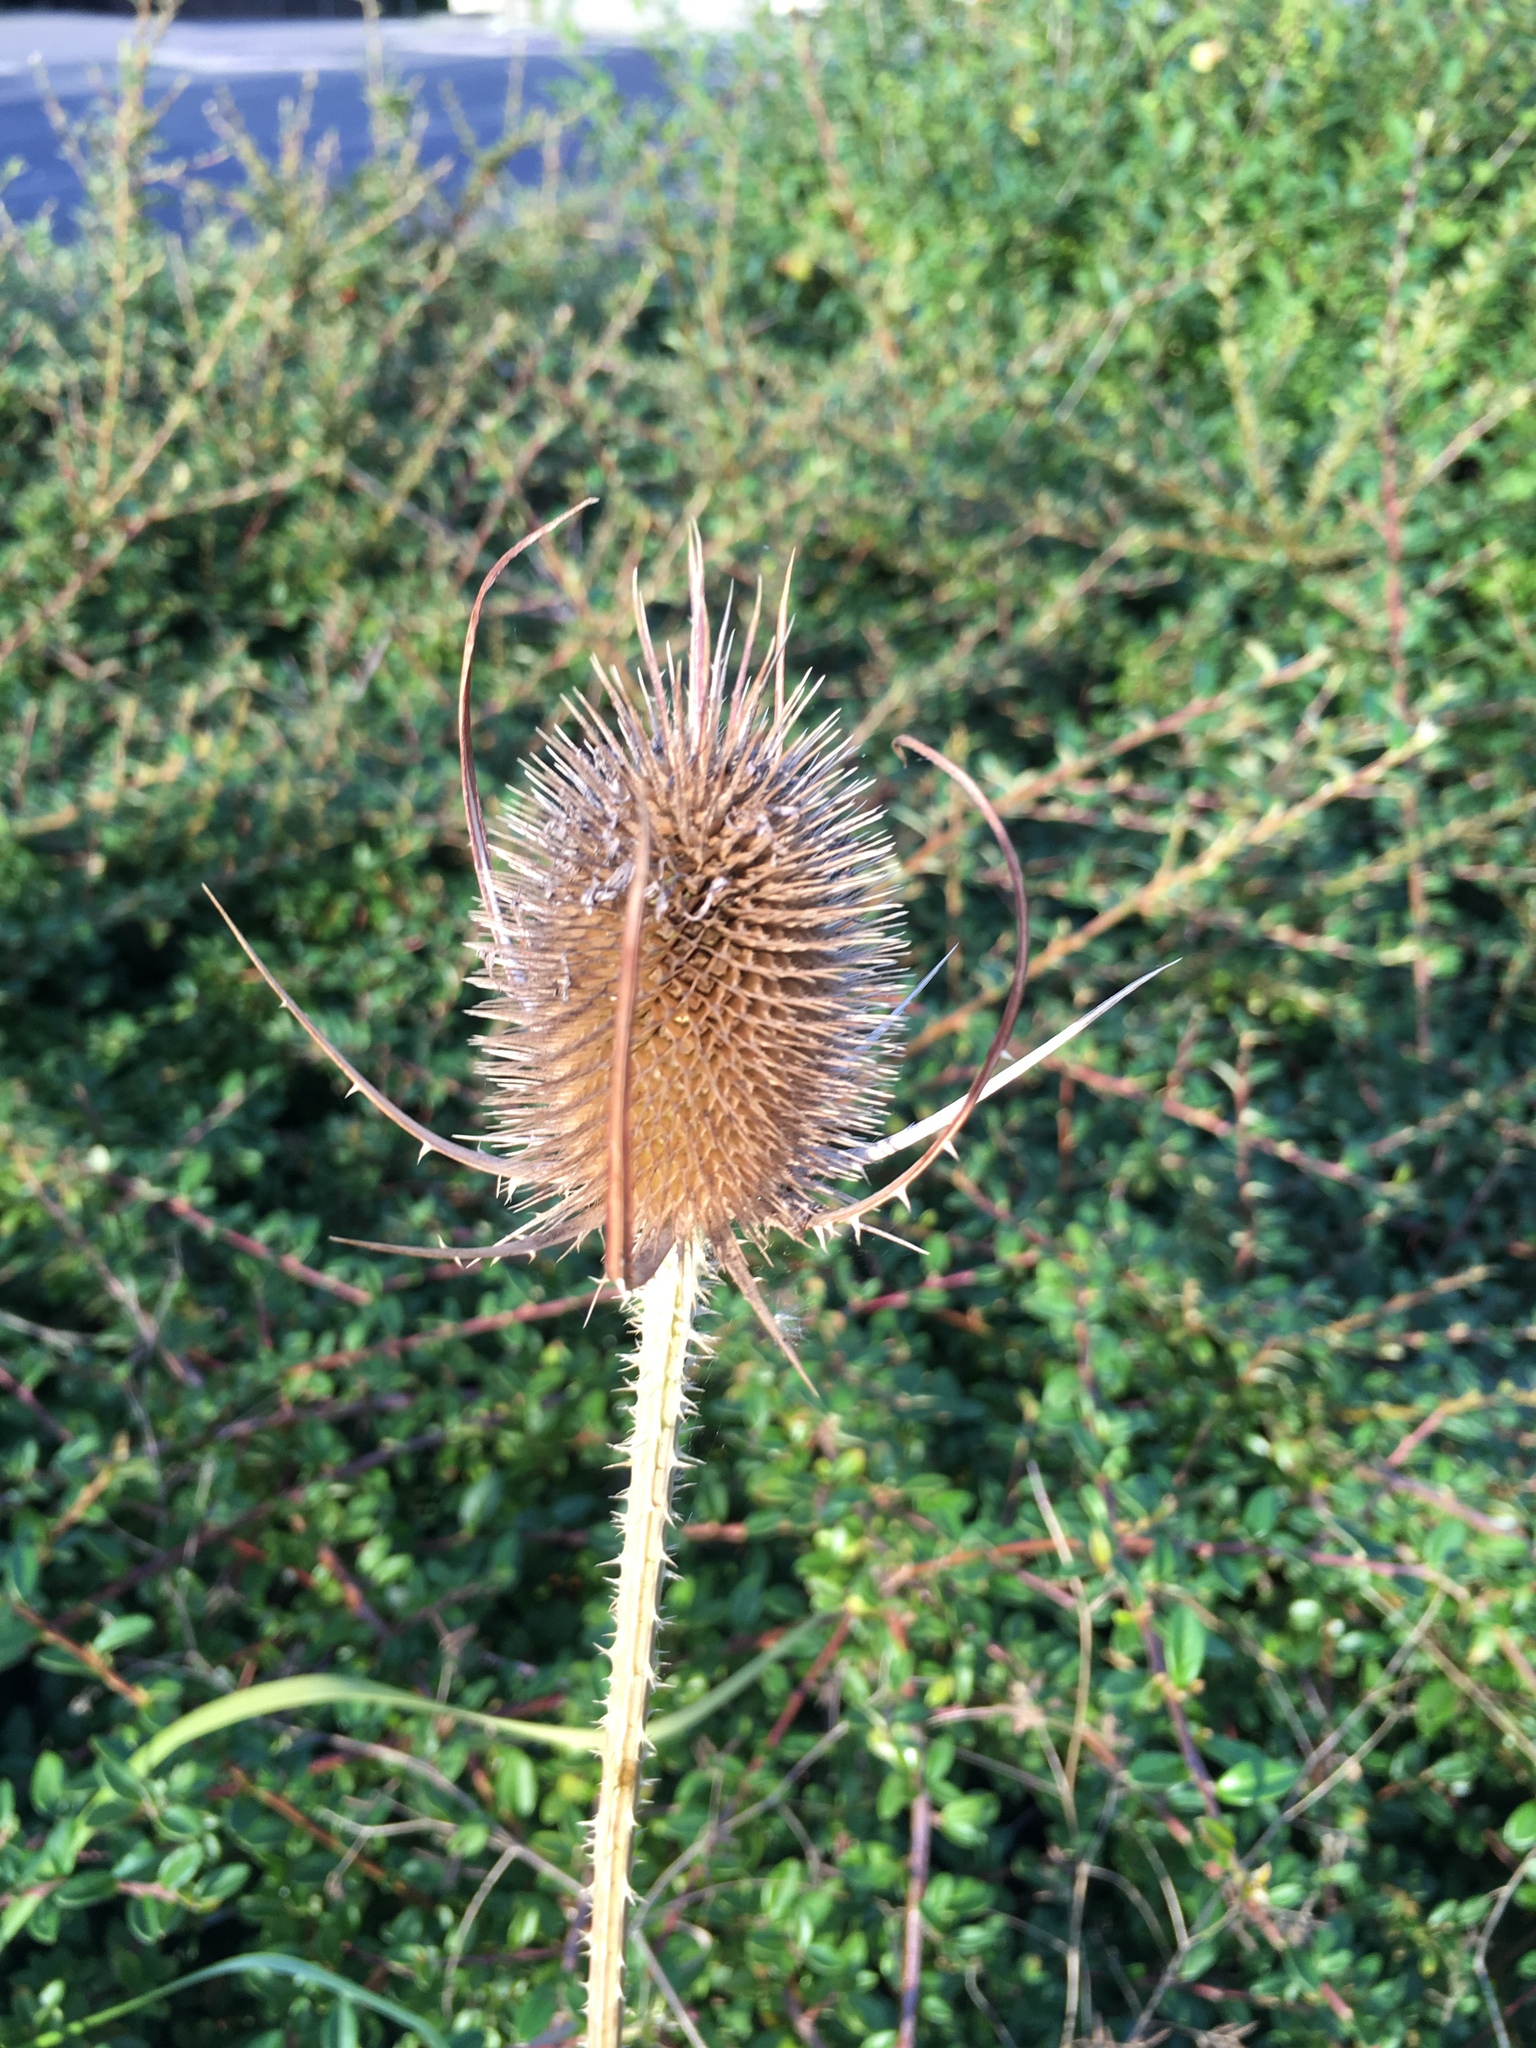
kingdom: Plantae
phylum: Tracheophyta
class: Magnoliopsida
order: Dipsacales
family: Caprifoliaceae
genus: Dipsacus
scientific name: Dipsacus fullonum
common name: Teasel
